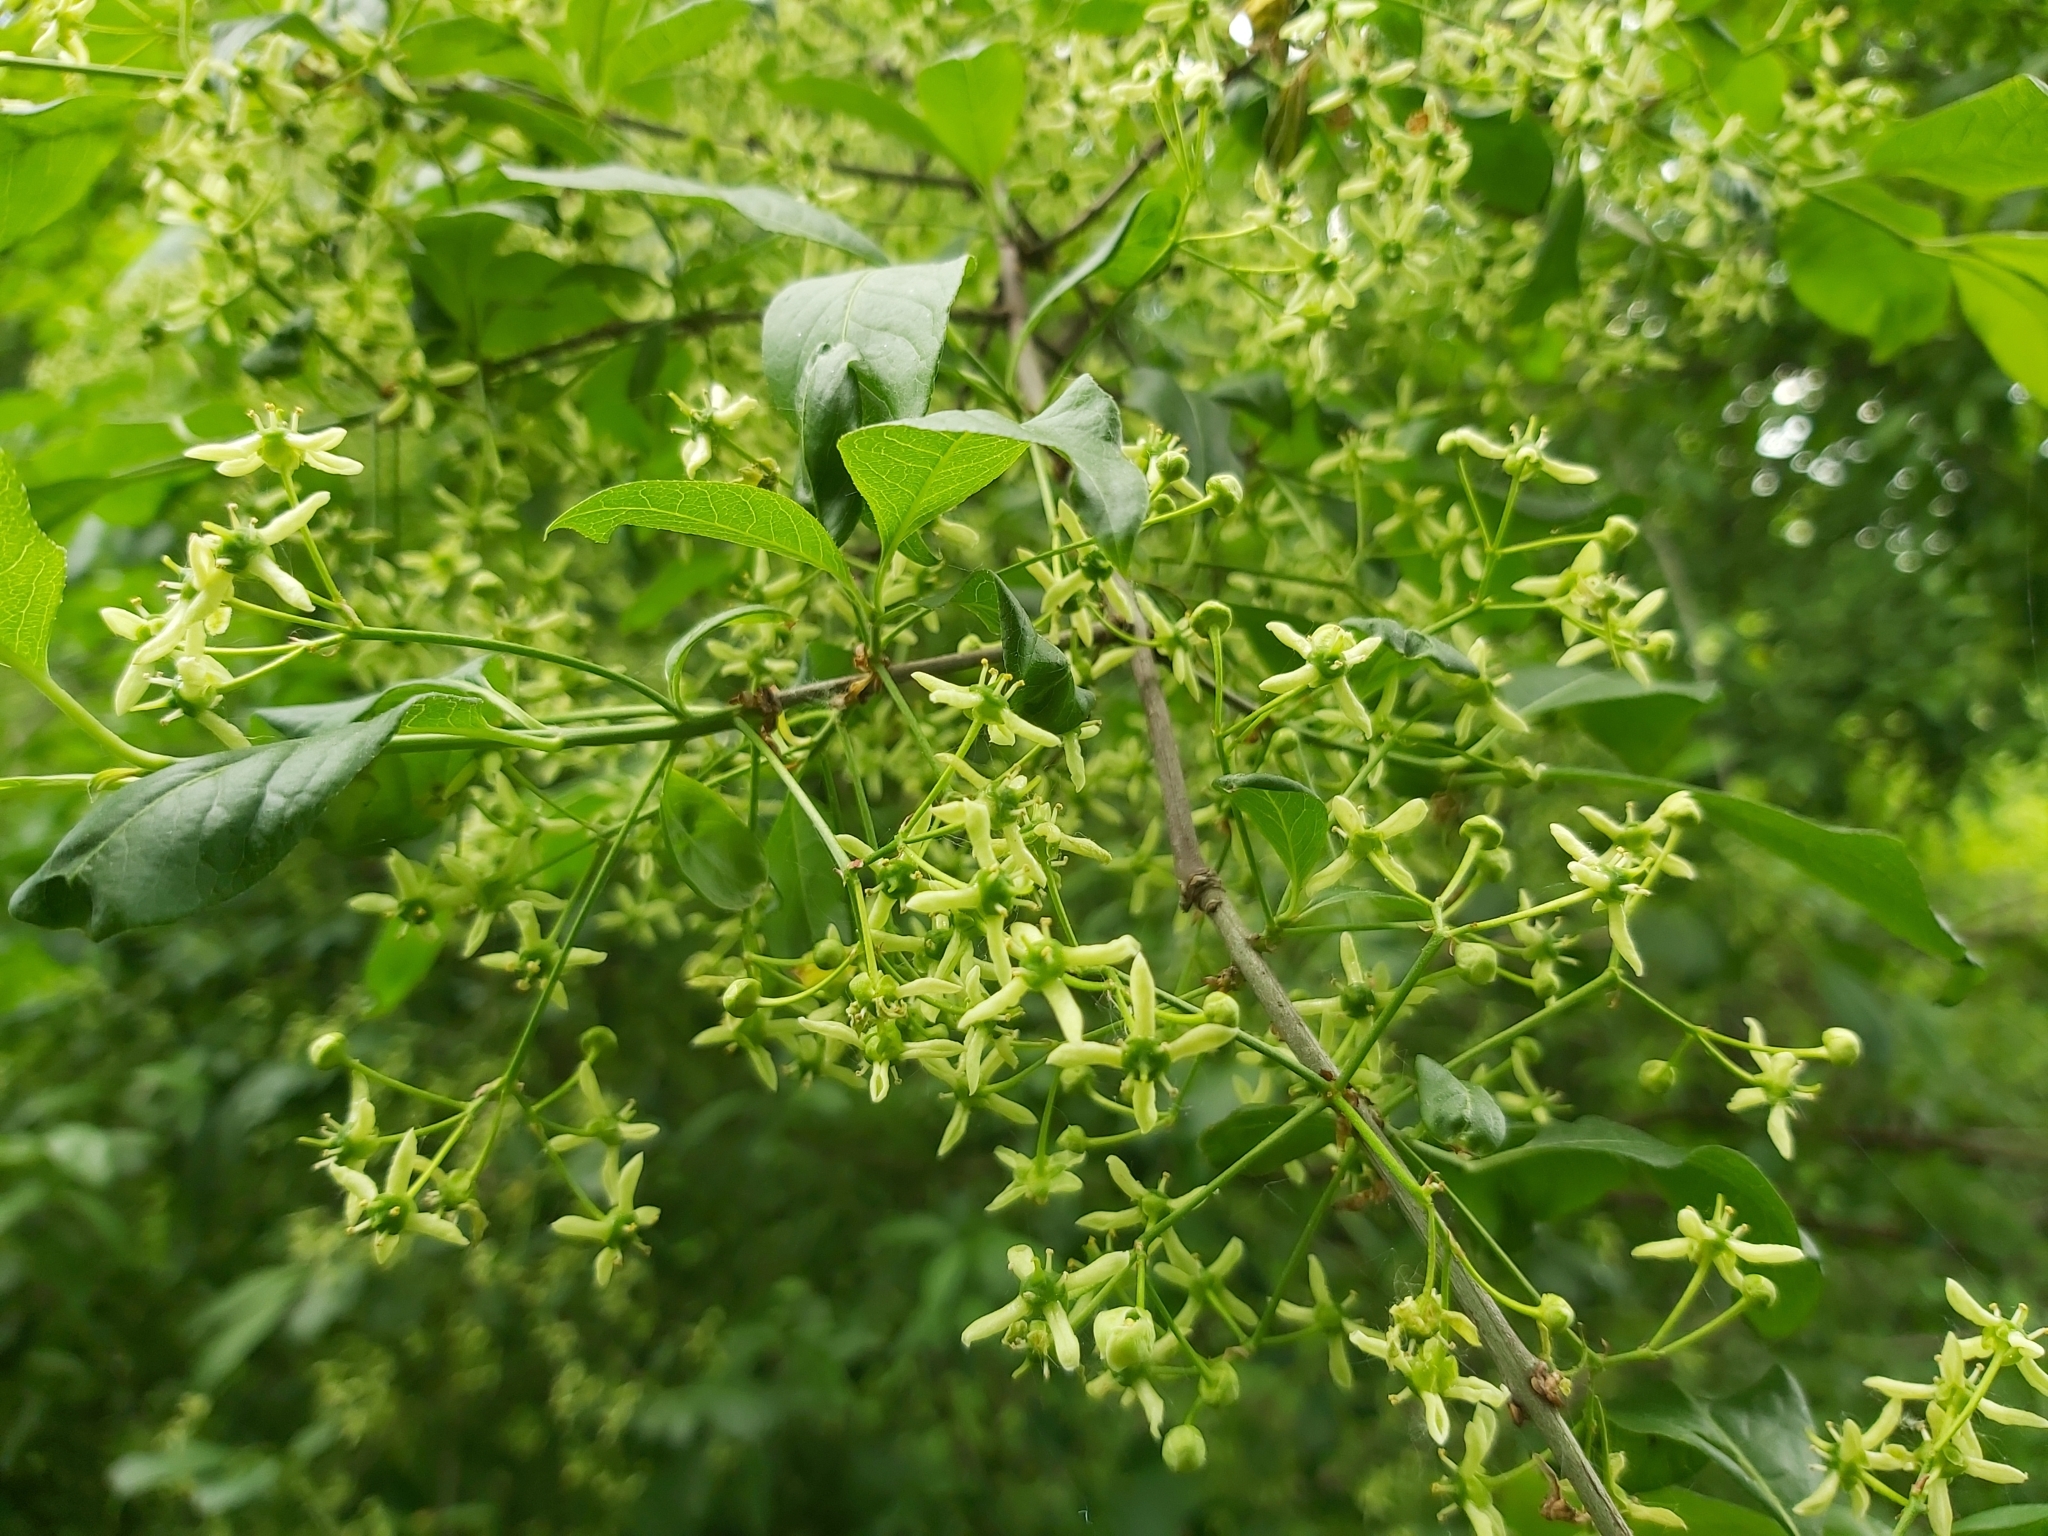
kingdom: Plantae
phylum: Tracheophyta
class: Magnoliopsida
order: Celastrales
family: Celastraceae
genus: Euonymus
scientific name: Euonymus europaeus
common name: Spindle
